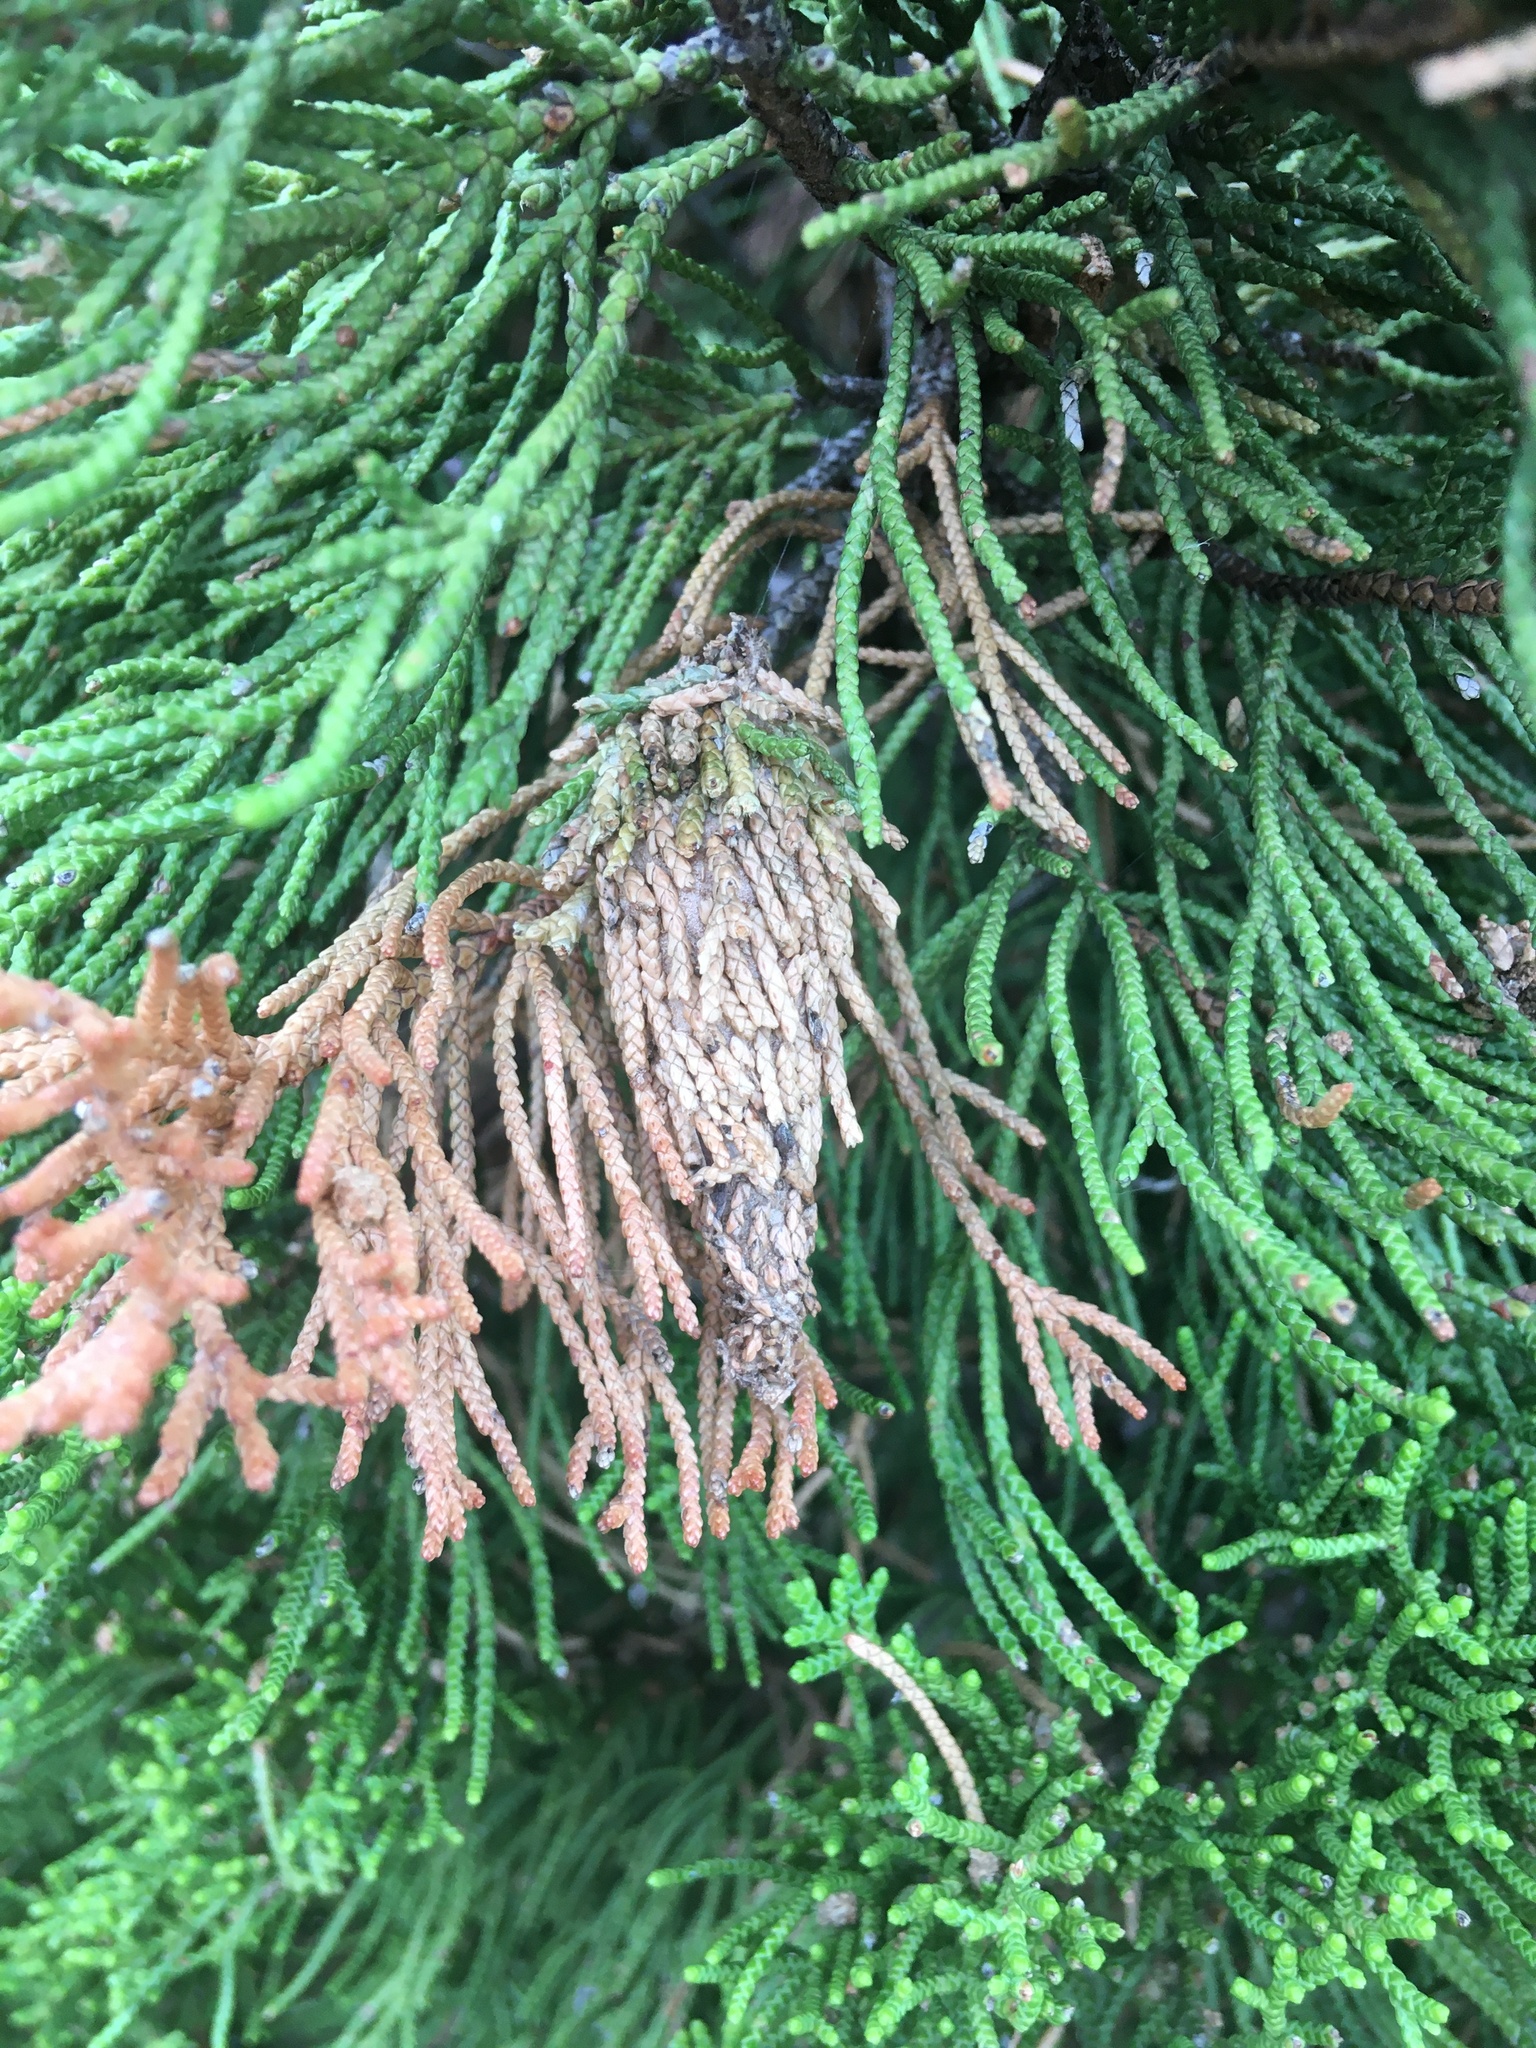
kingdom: Animalia
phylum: Arthropoda
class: Insecta
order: Lepidoptera
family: Psychidae
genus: Thyridopteryx
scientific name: Thyridopteryx ephemeraeformis
